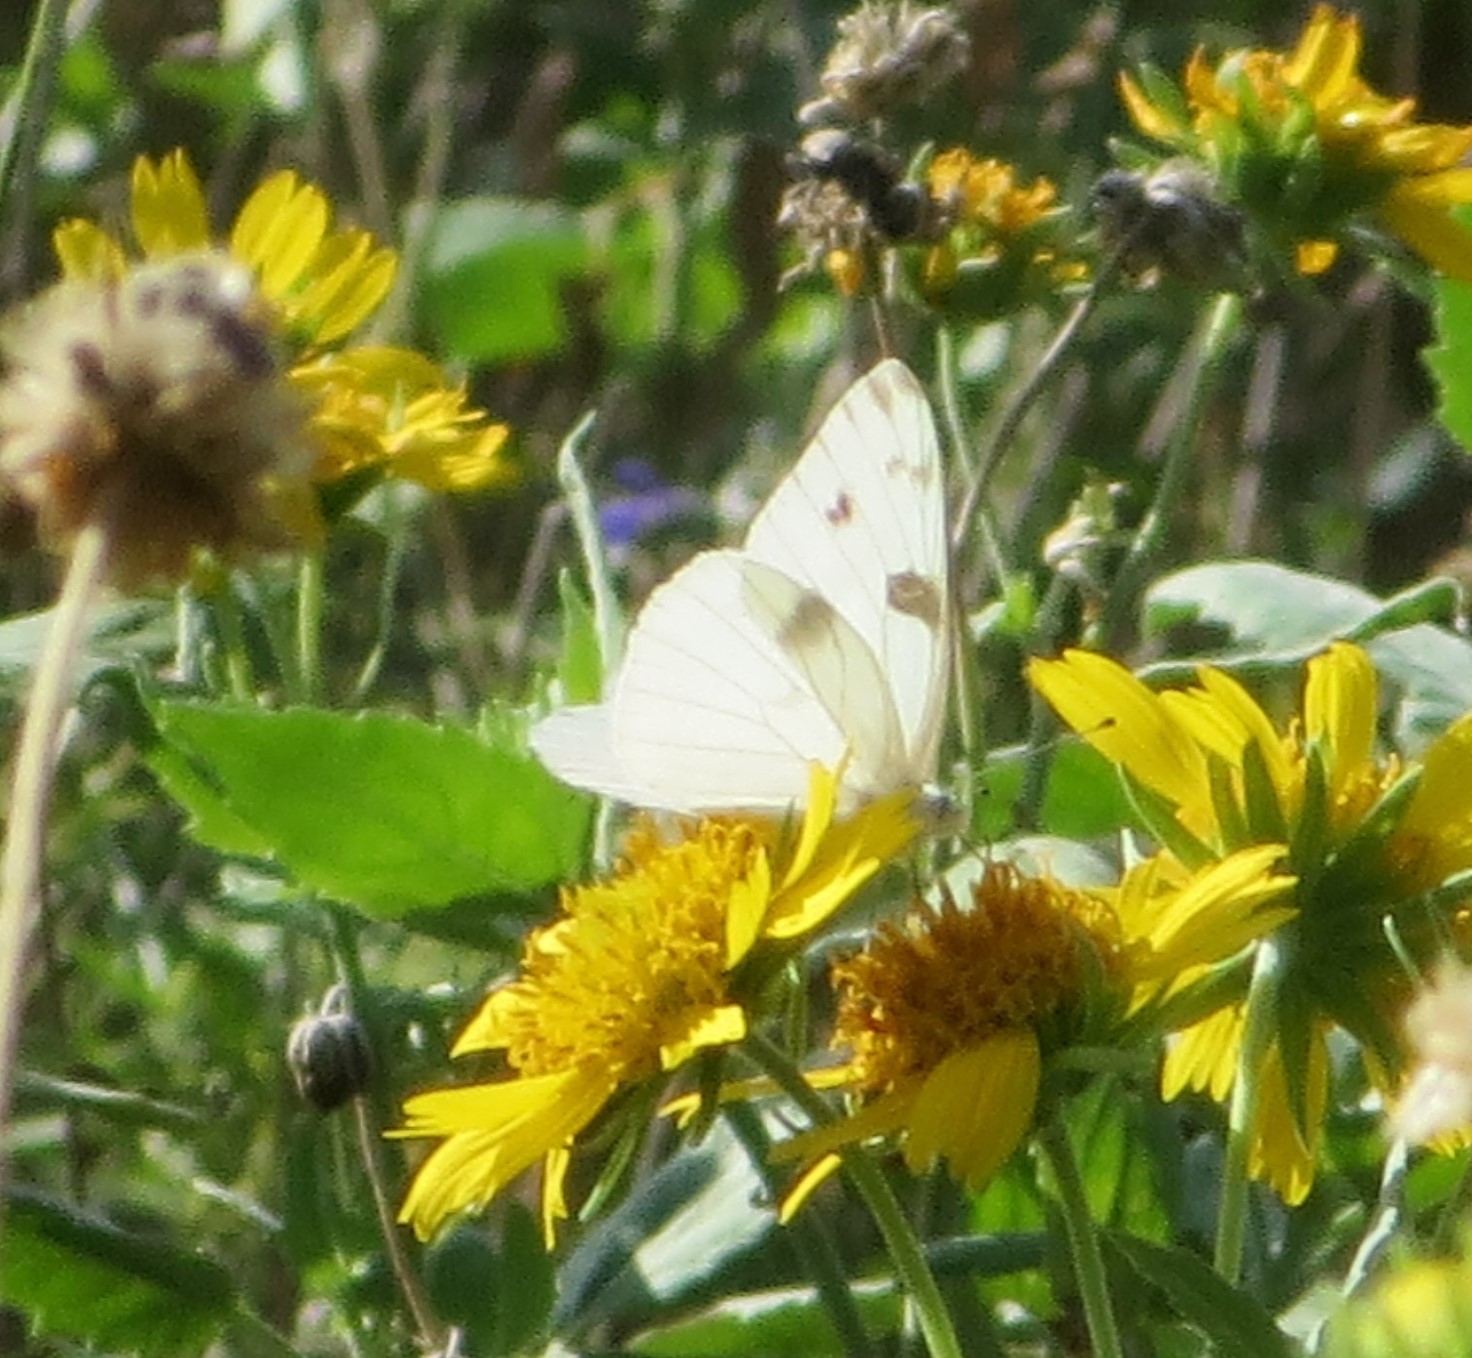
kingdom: Animalia
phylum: Arthropoda
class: Insecta
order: Lepidoptera
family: Pieridae
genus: Pontia
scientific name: Pontia protodice
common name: Checkered white
